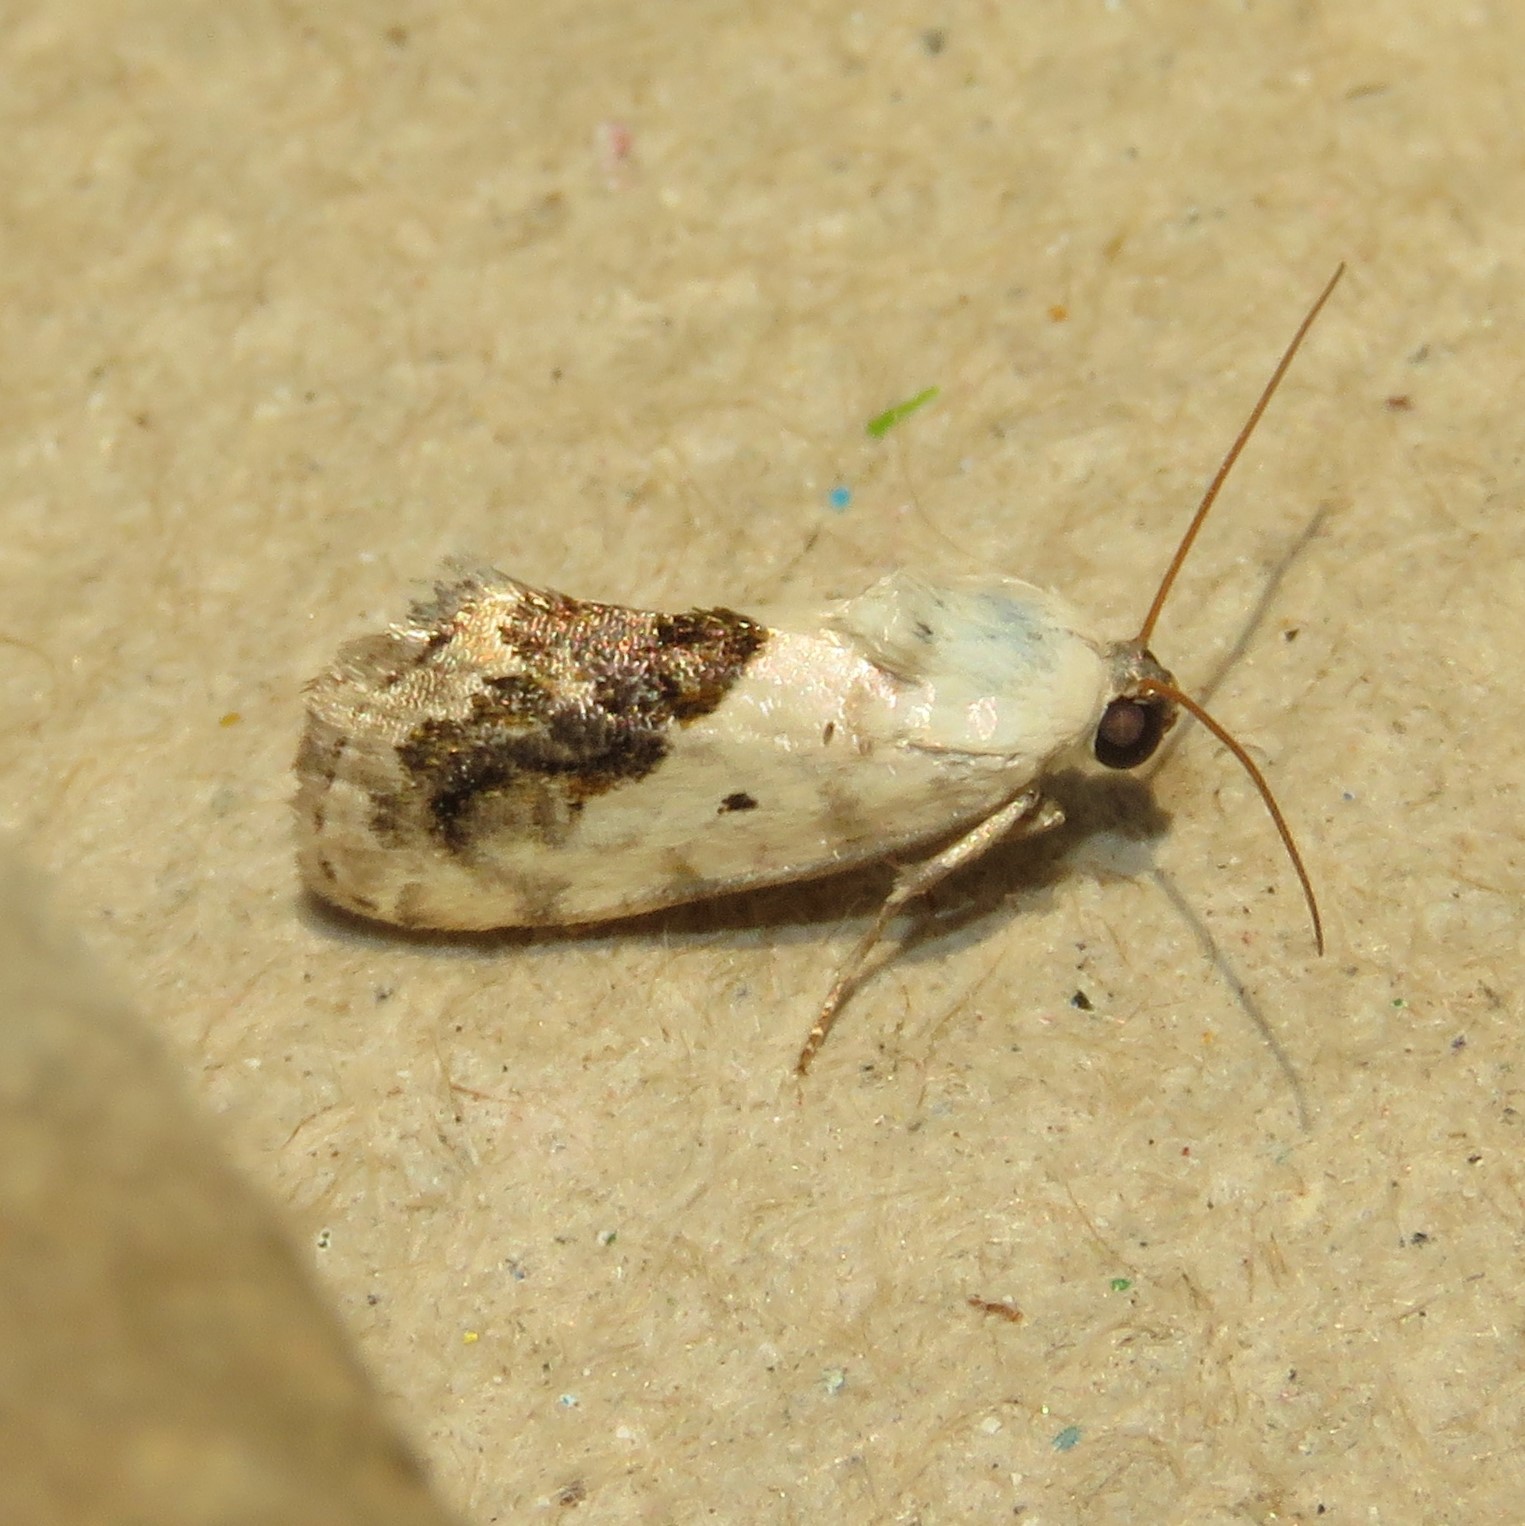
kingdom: Animalia
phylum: Arthropoda
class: Insecta
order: Lepidoptera
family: Noctuidae
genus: Acontia
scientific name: Acontia erastrioides
